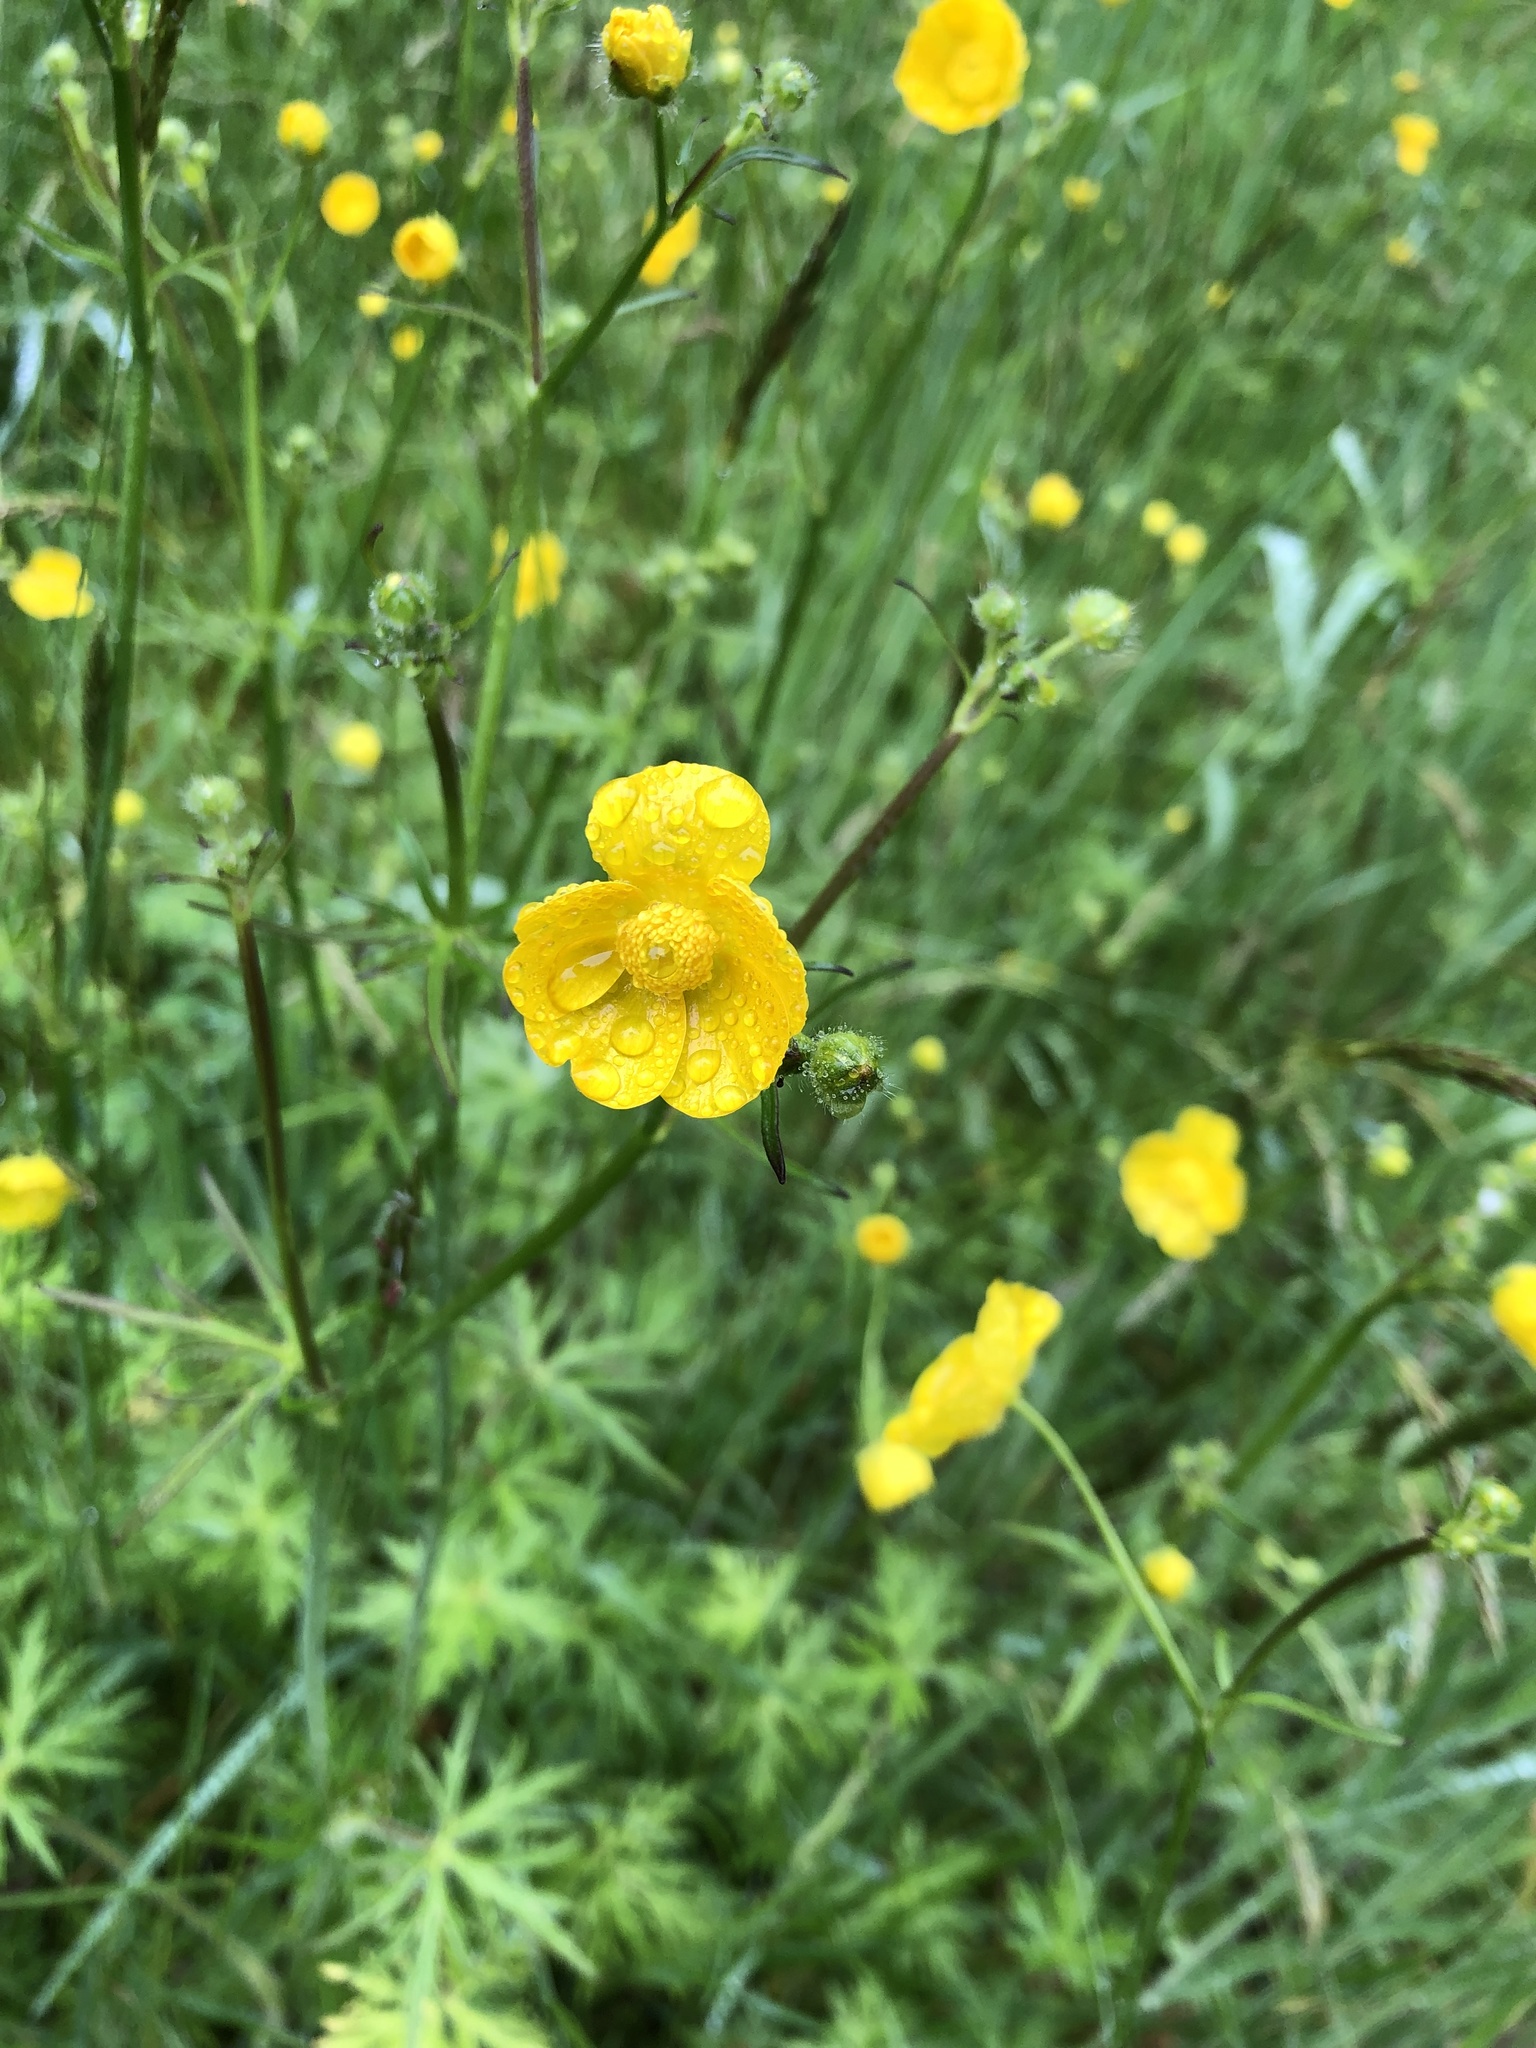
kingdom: Plantae
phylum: Tracheophyta
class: Magnoliopsida
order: Ranunculales
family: Ranunculaceae
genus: Ranunculus
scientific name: Ranunculus acris
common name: Meadow buttercup
